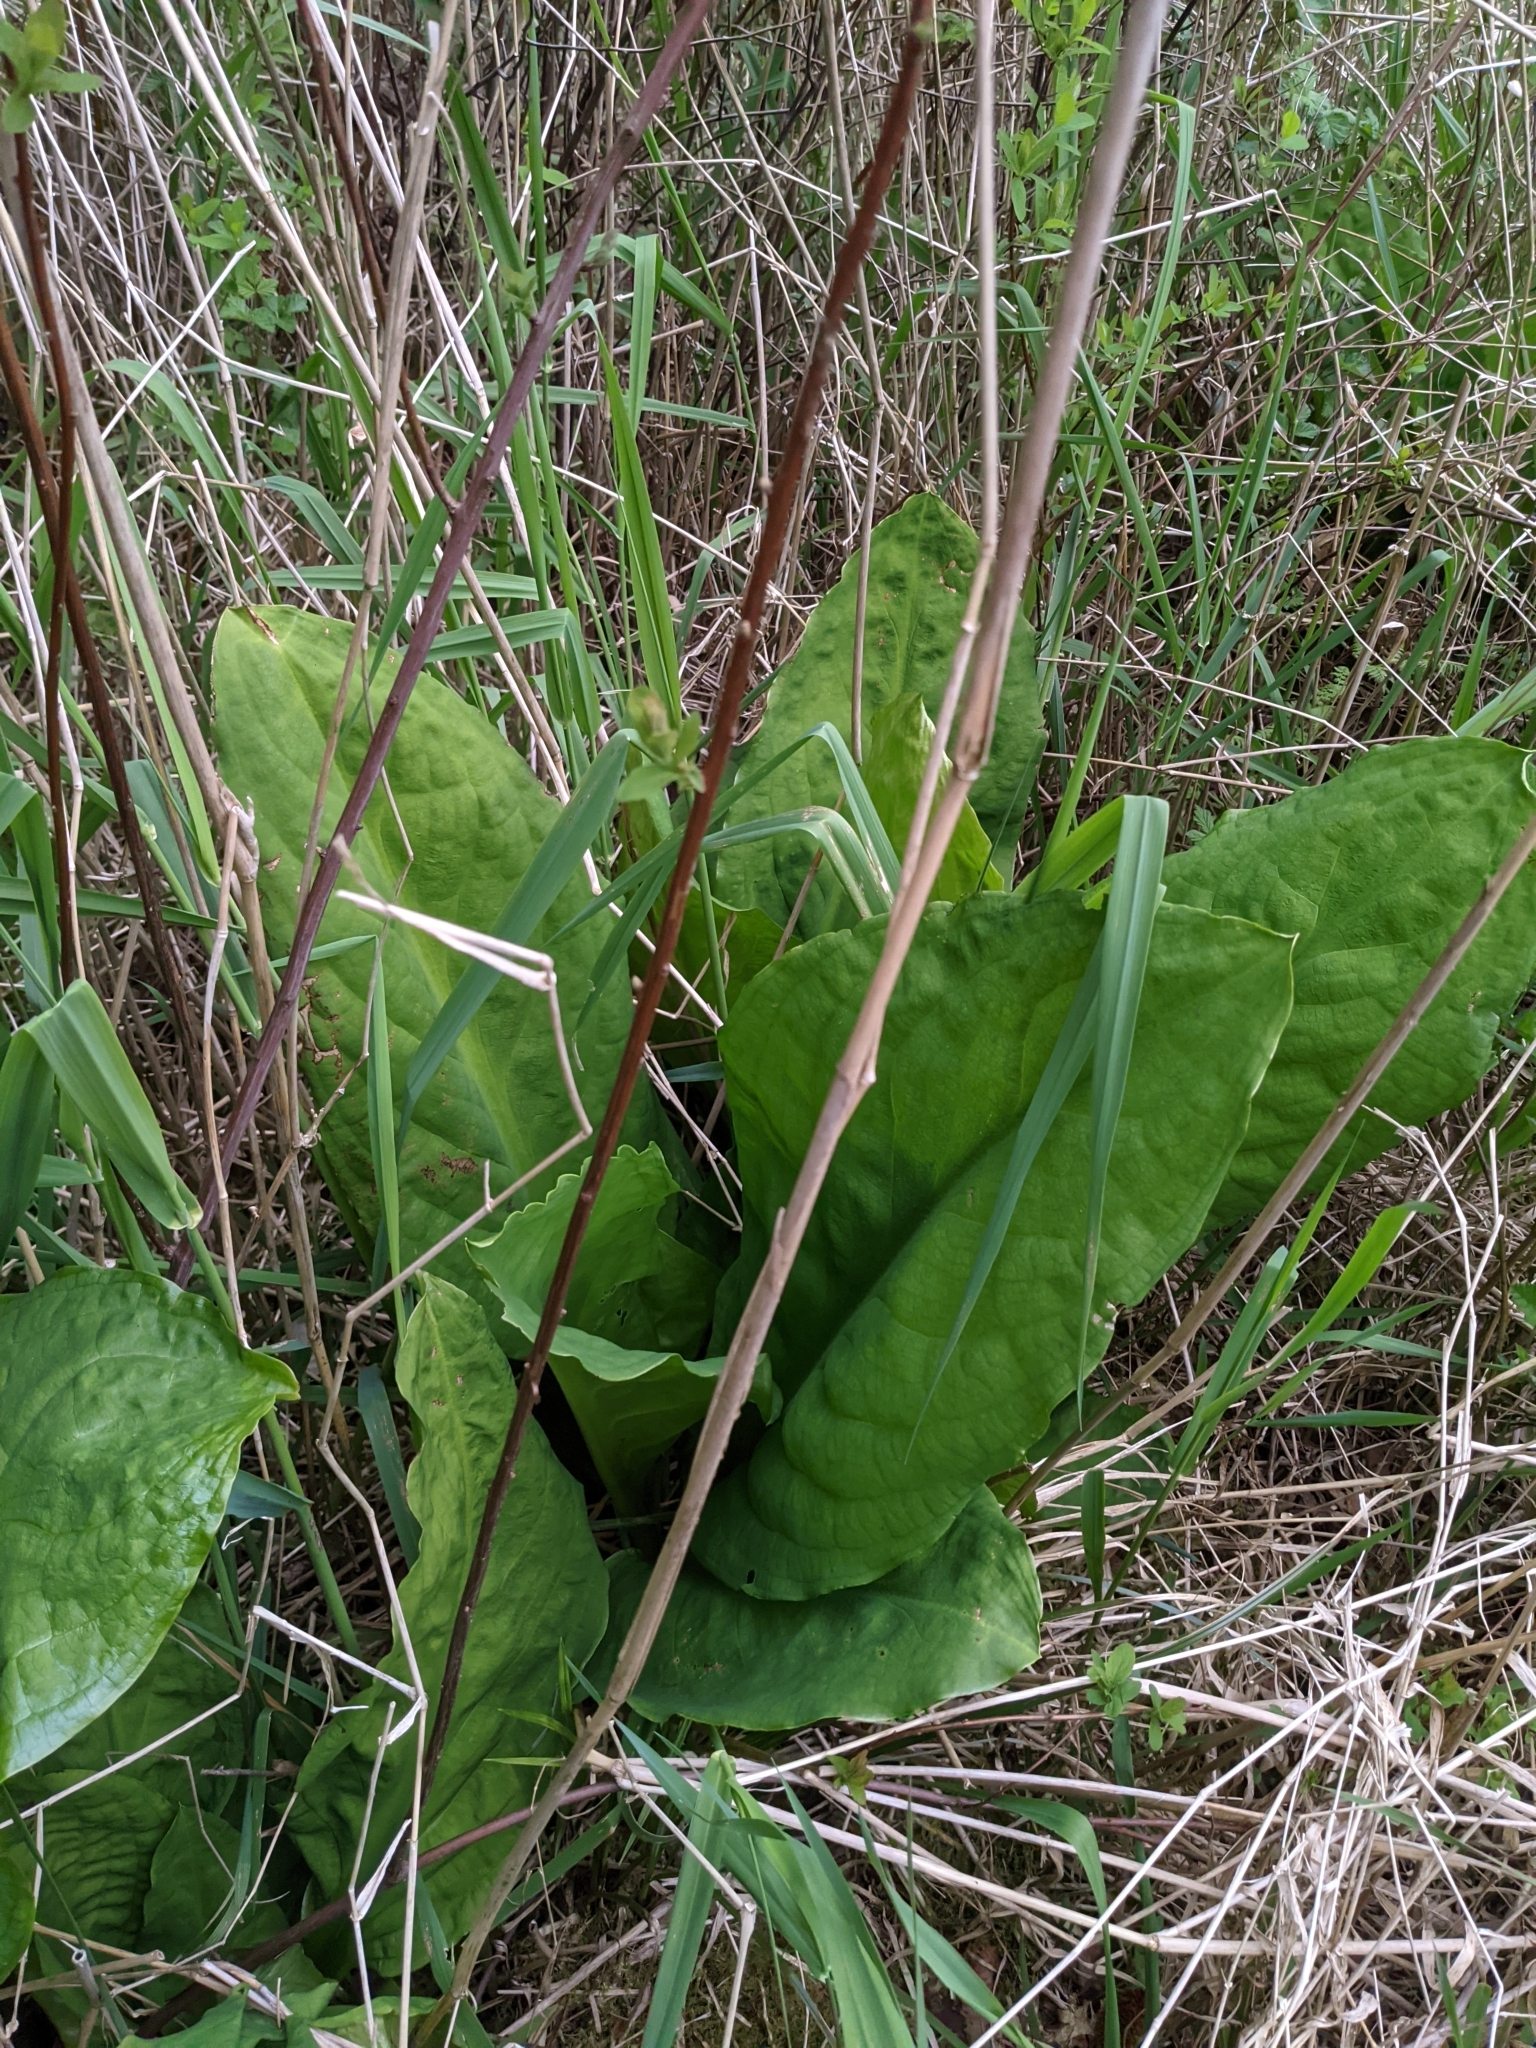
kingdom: Plantae
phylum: Tracheophyta
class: Liliopsida
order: Alismatales
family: Araceae
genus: Lysichiton
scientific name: Lysichiton americanus
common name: American skunk cabbage
